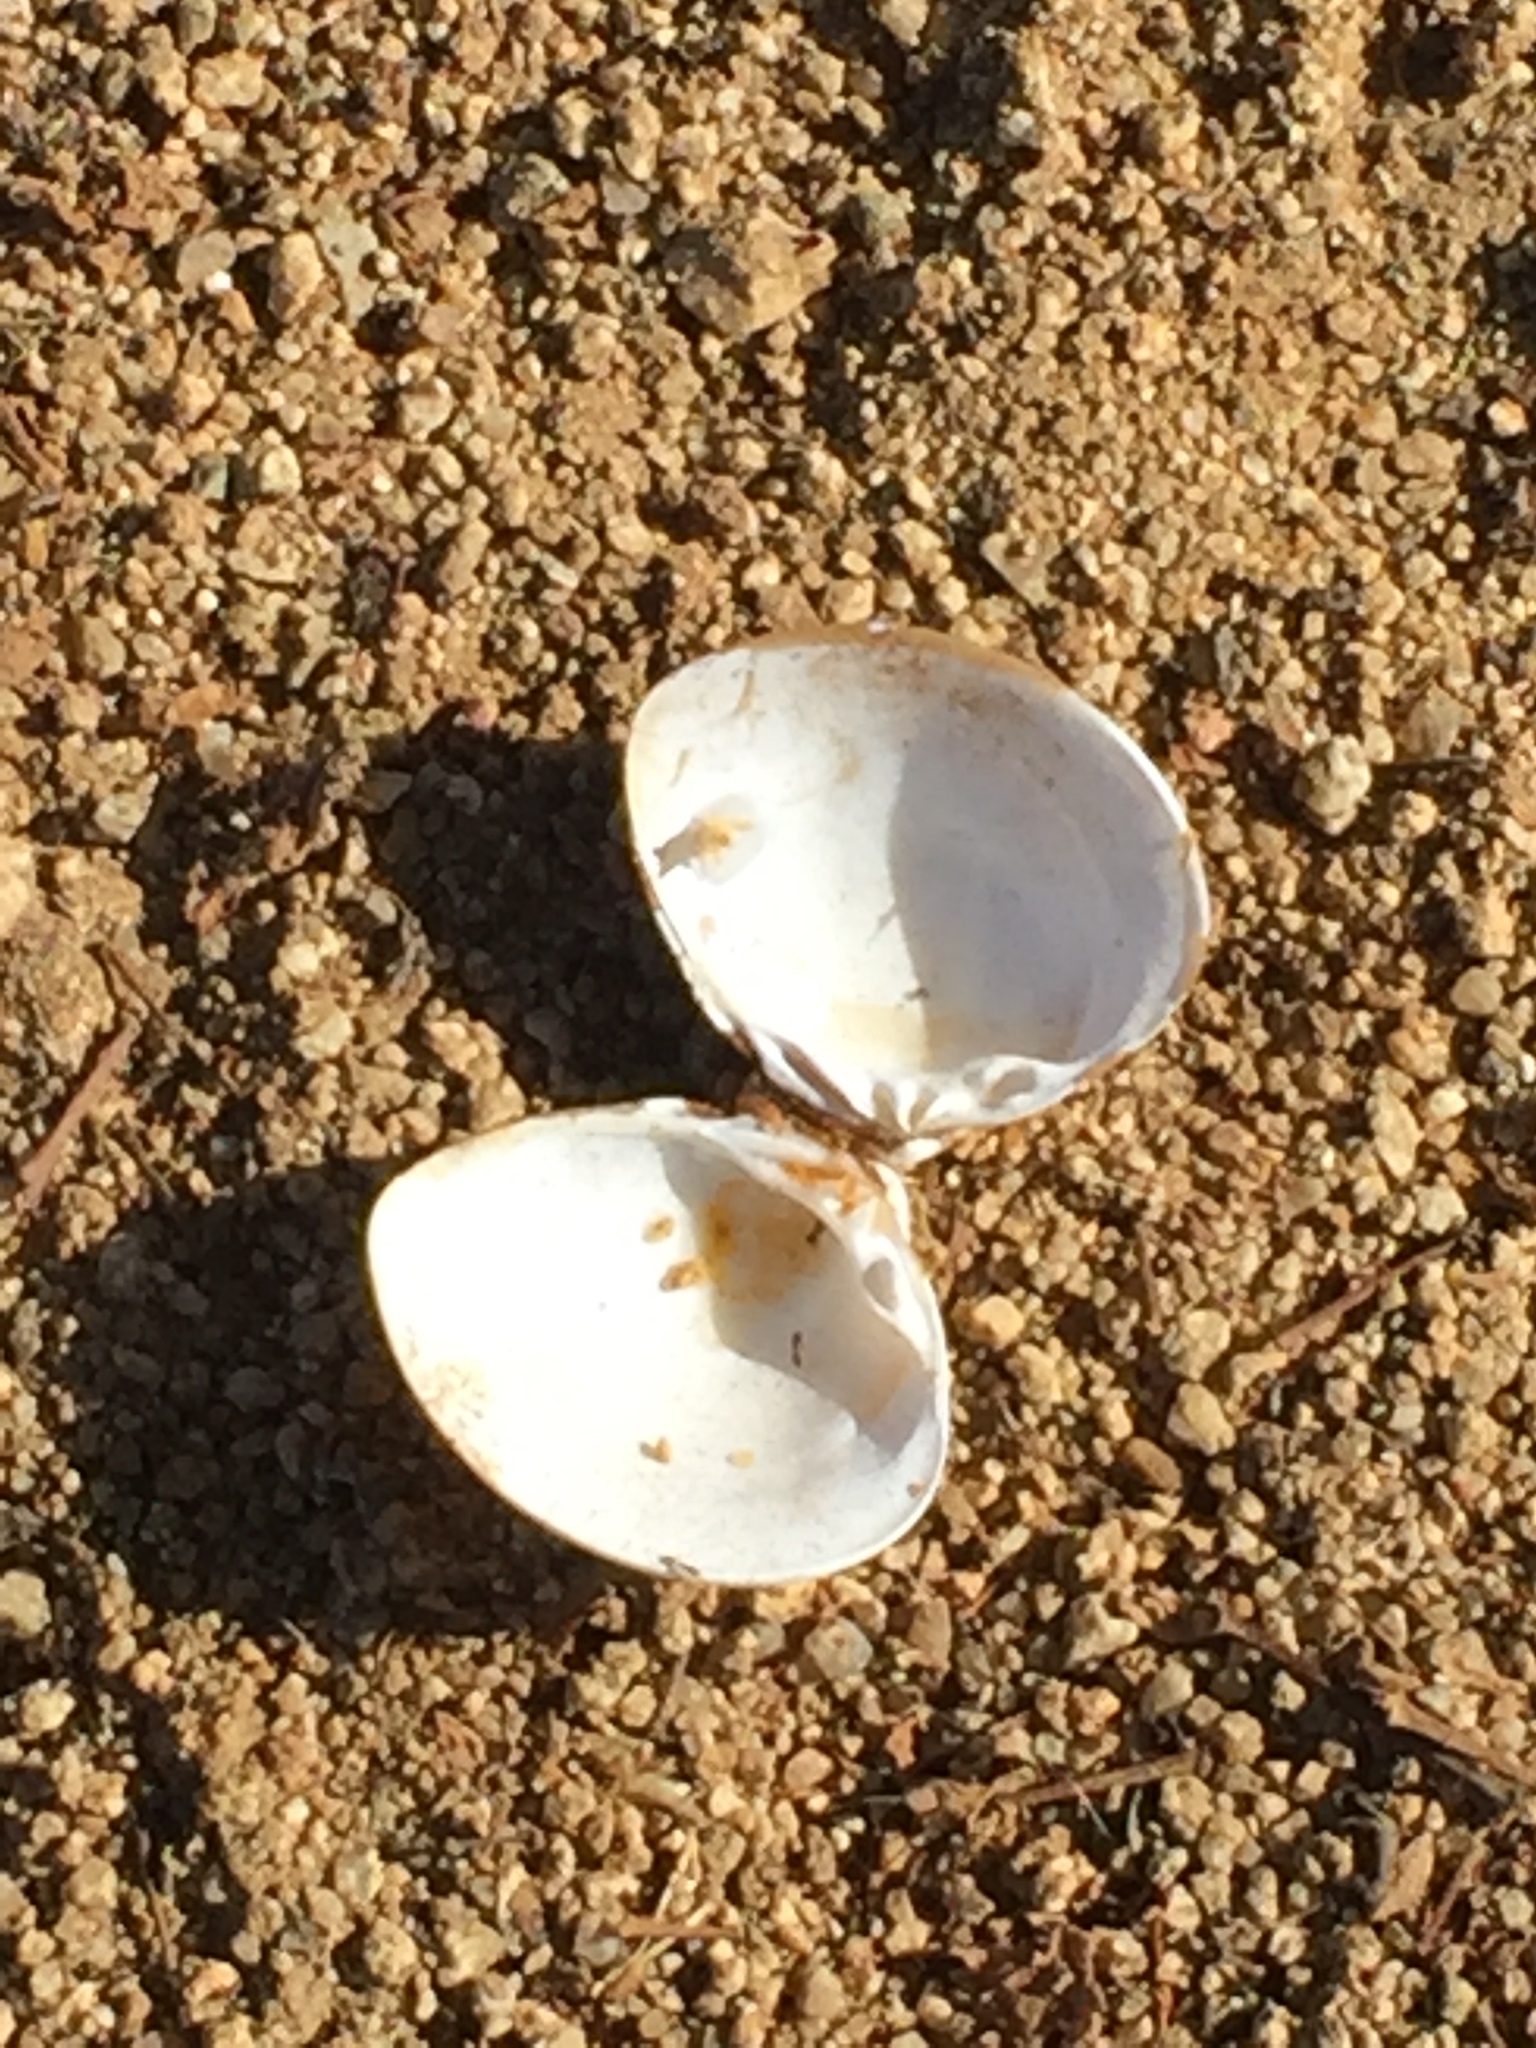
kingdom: Animalia
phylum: Chordata
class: Aves
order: Passeriformes
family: Corvidae
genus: Corvus
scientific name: Corvus brachyrhynchos
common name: American crow
